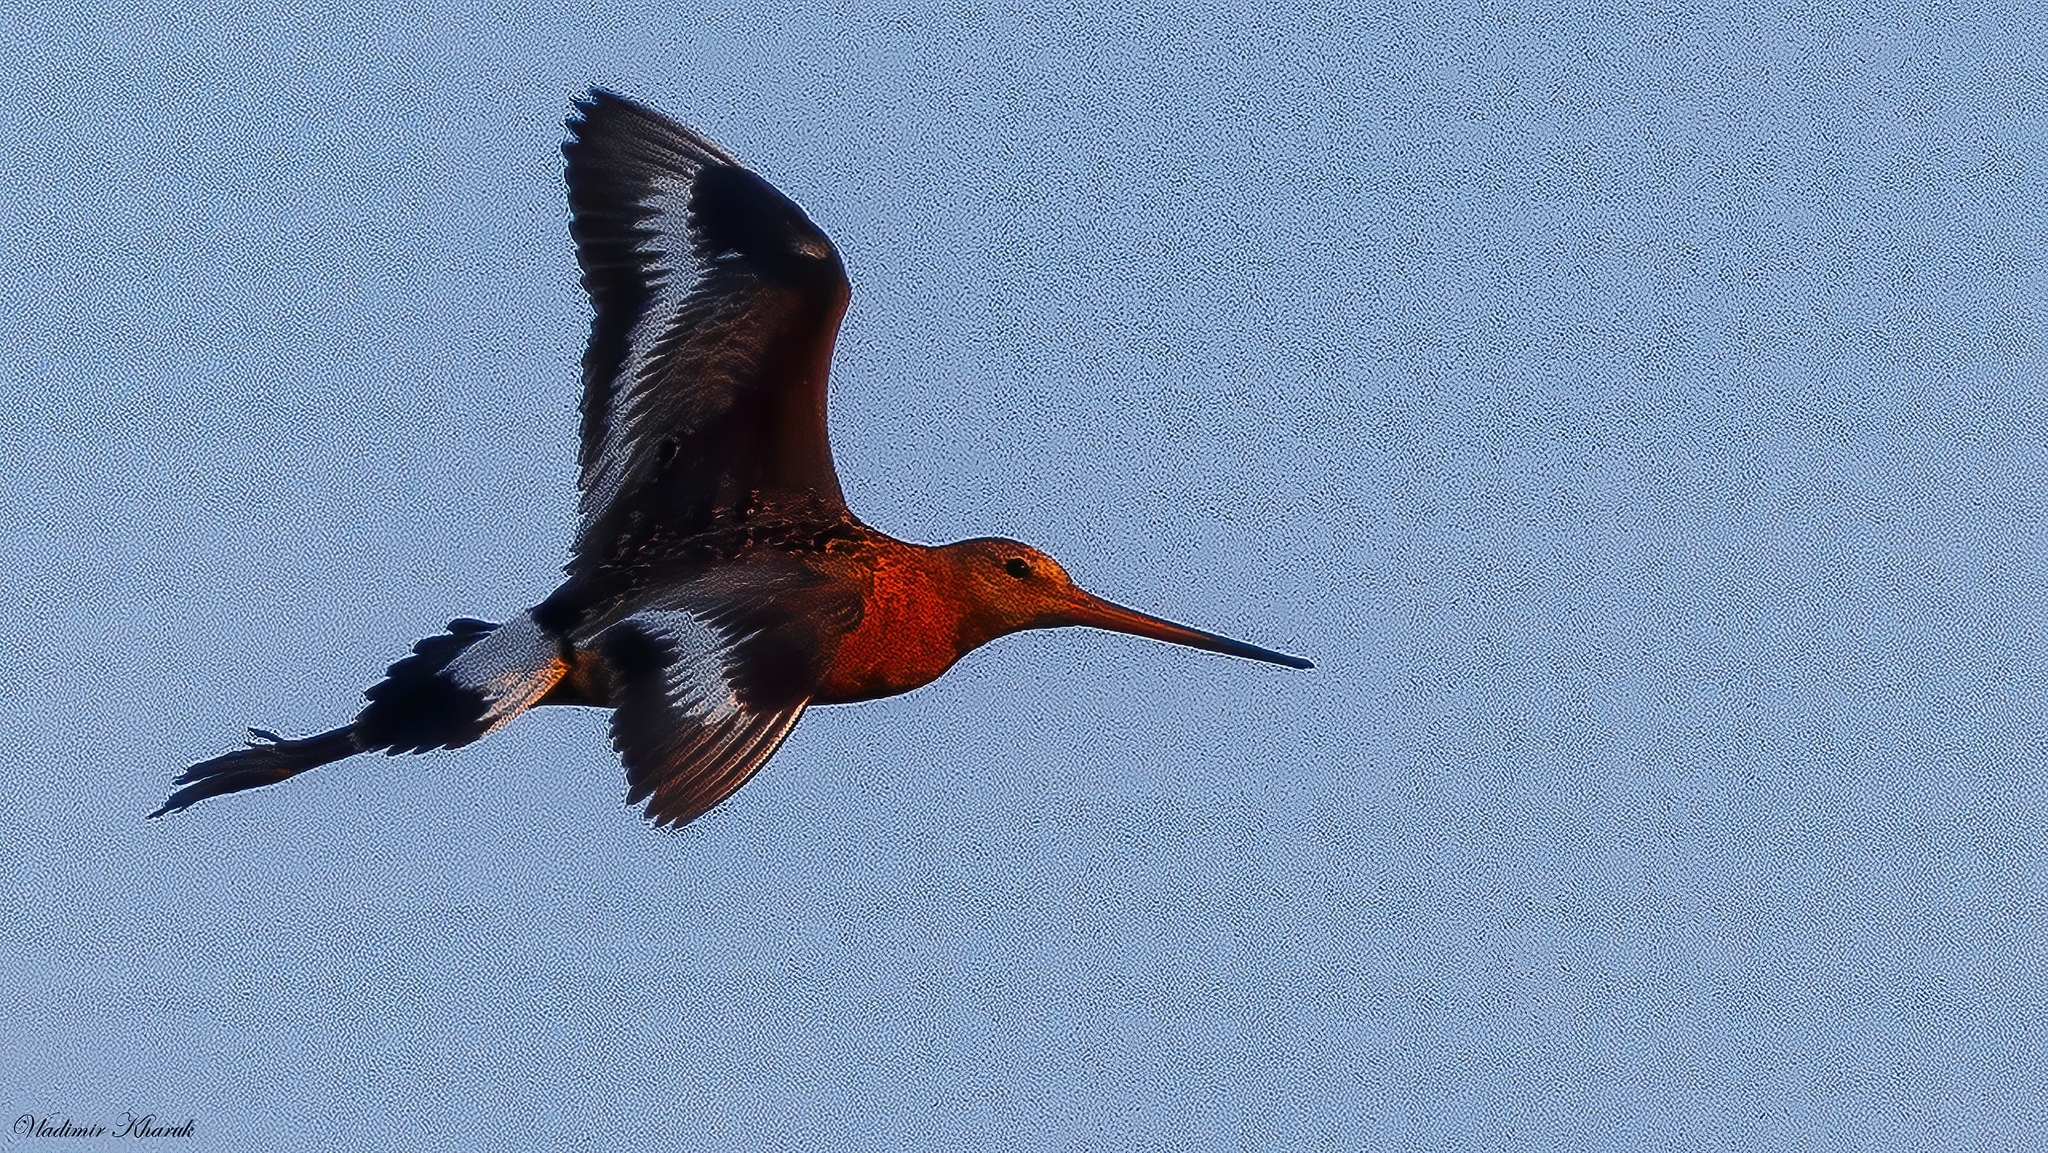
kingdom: Animalia
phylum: Chordata
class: Aves
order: Charadriiformes
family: Scolopacidae
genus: Limosa
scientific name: Limosa limosa
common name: Black-tailed godwit
